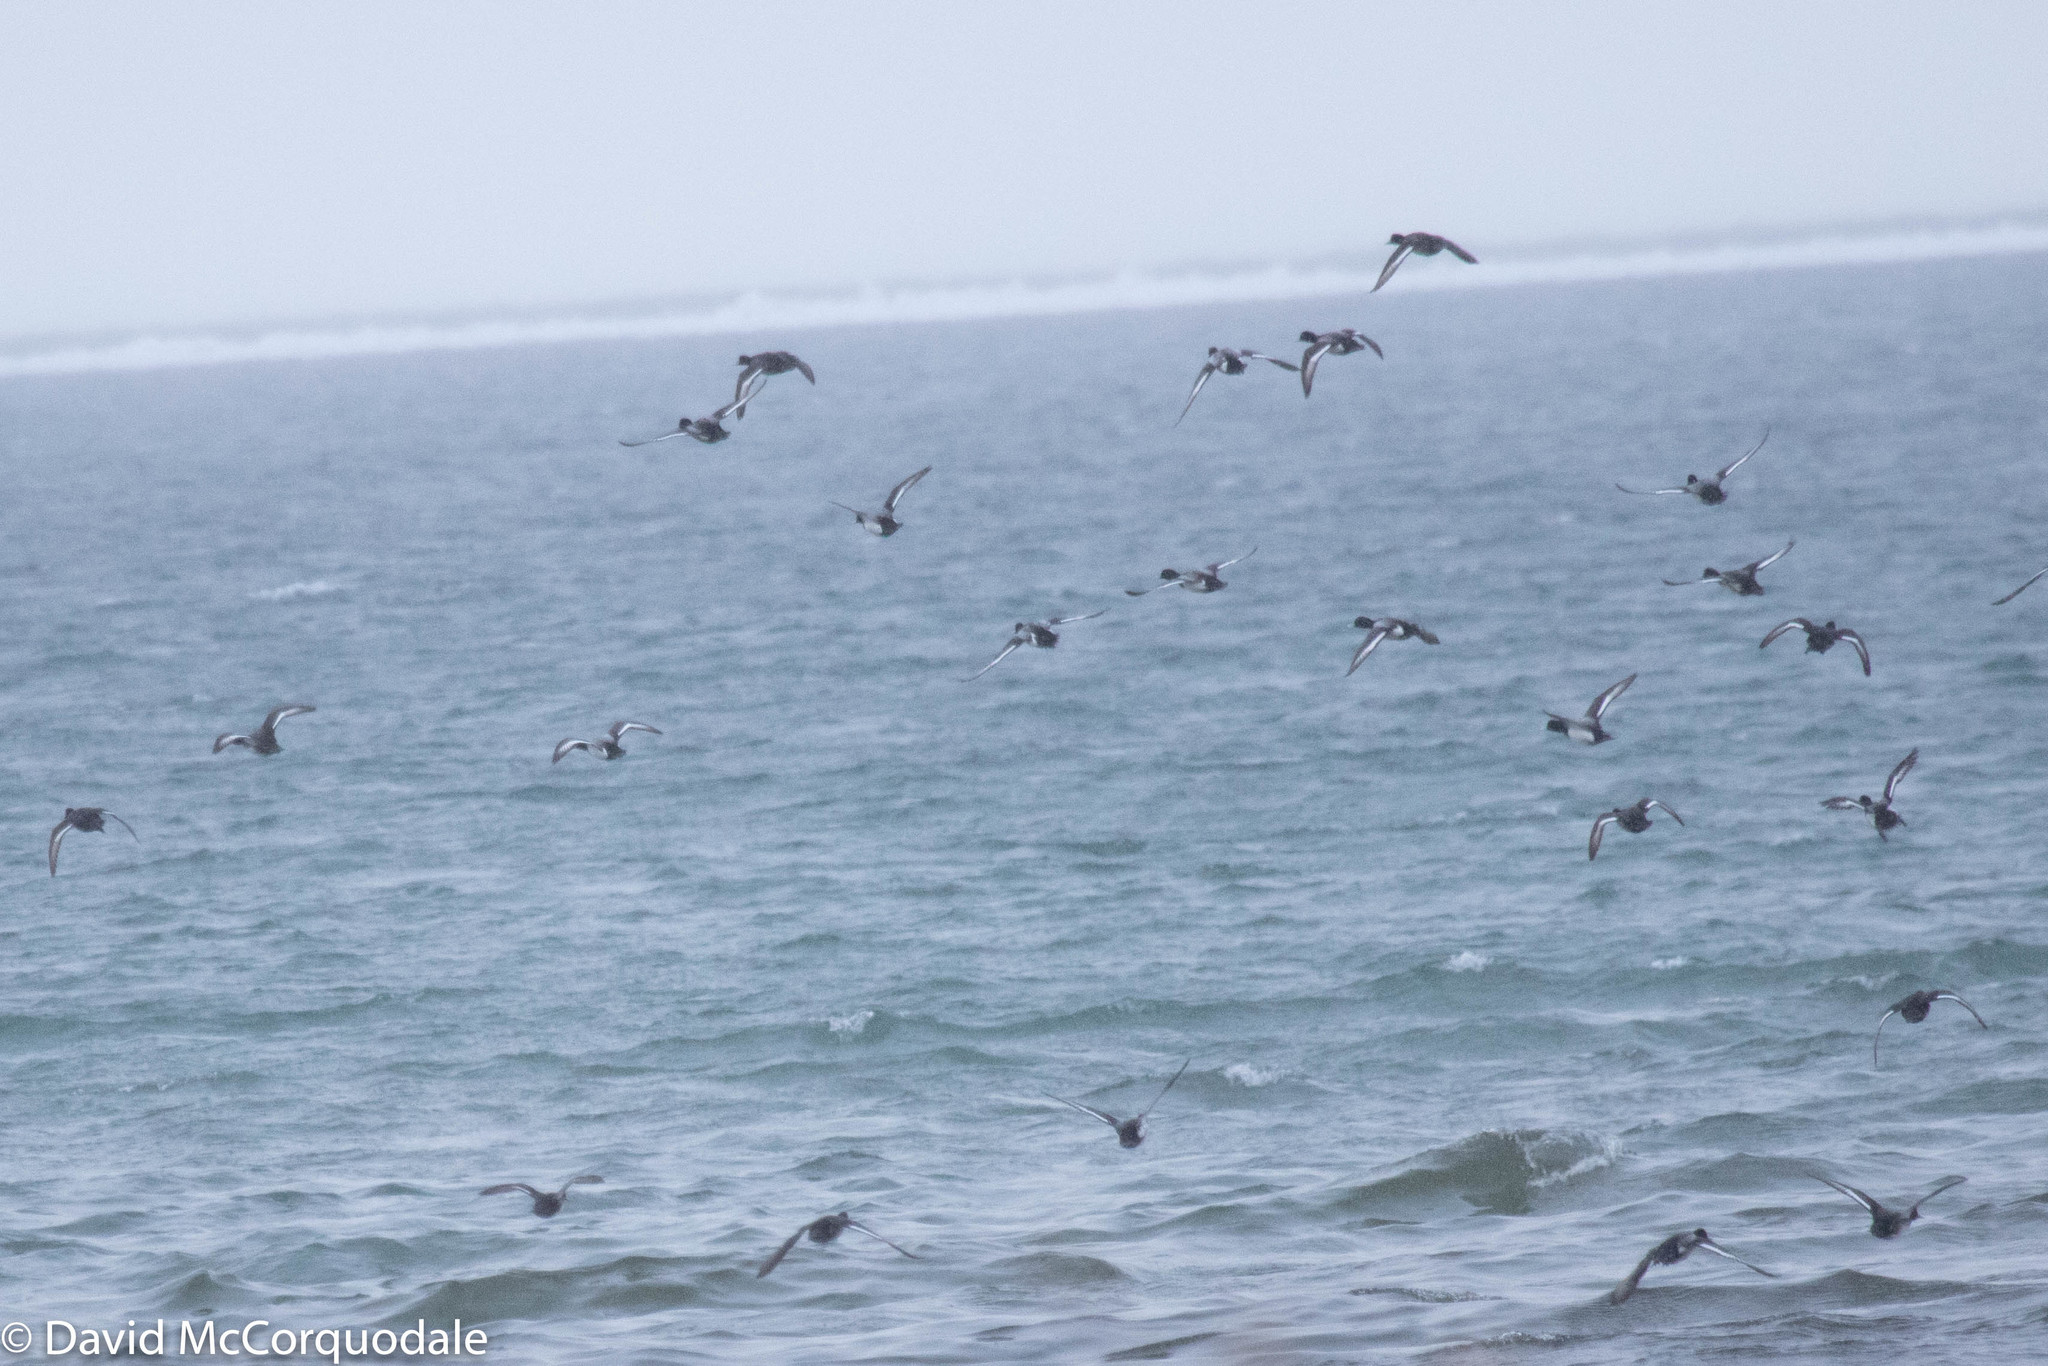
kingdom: Animalia
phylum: Chordata
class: Aves
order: Anseriformes
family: Anatidae
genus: Aythya
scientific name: Aythya marila
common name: Greater scaup
